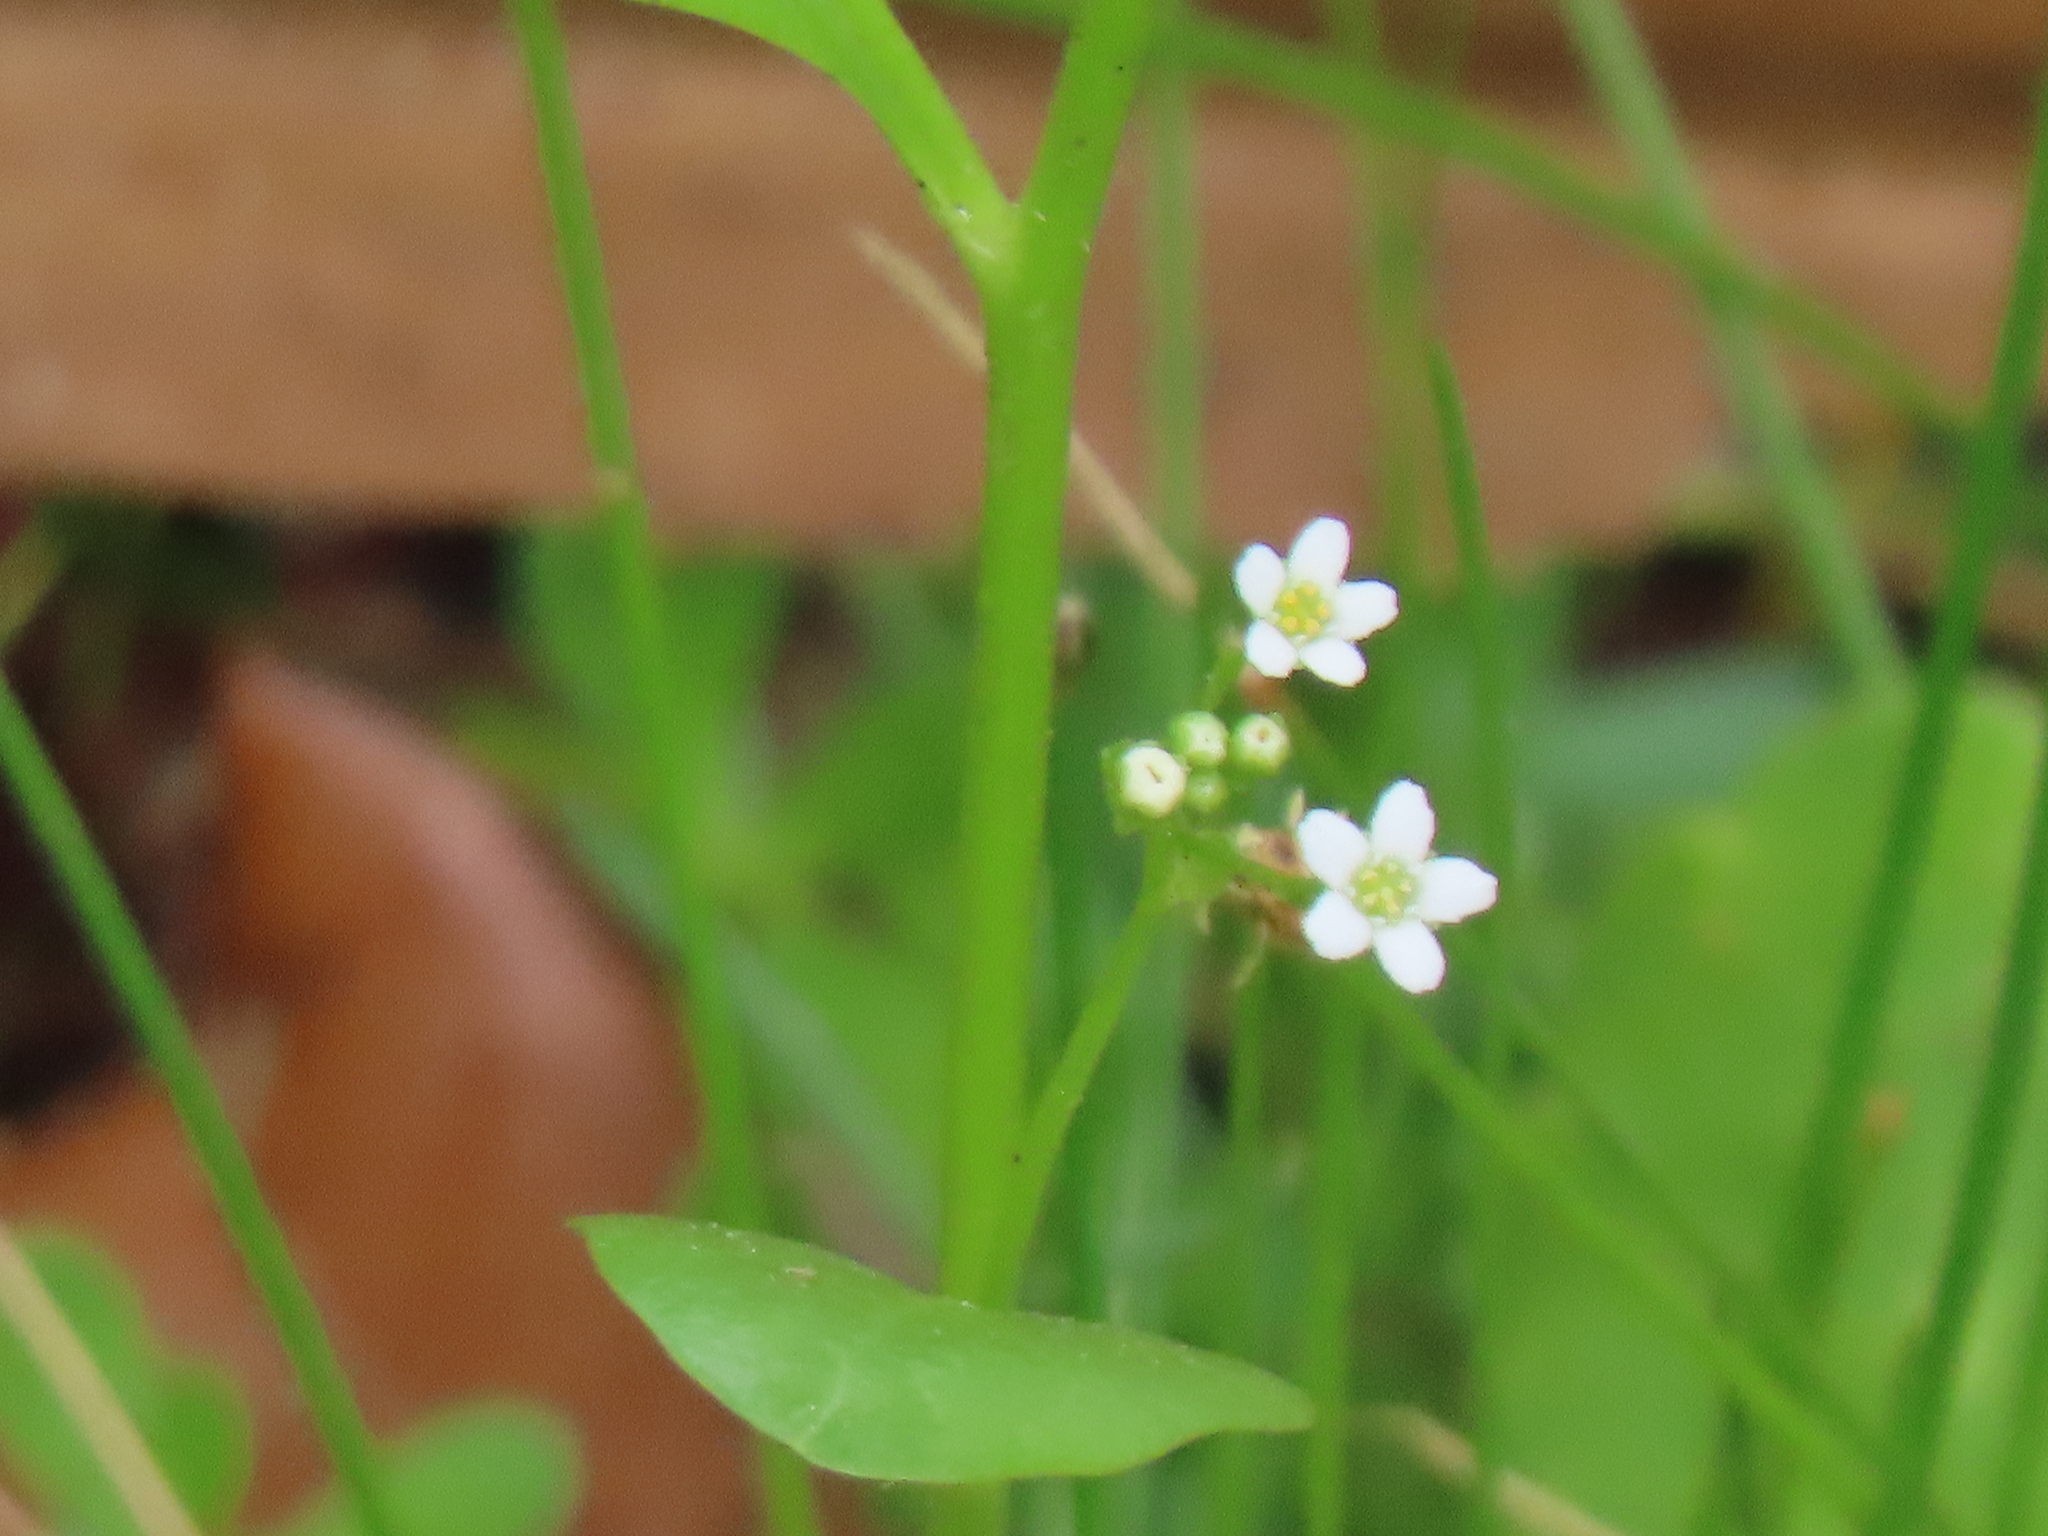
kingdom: Plantae
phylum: Tracheophyta
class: Magnoliopsida
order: Ericales
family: Primulaceae
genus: Samolus
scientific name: Samolus parviflorus
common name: False water pimpernel
